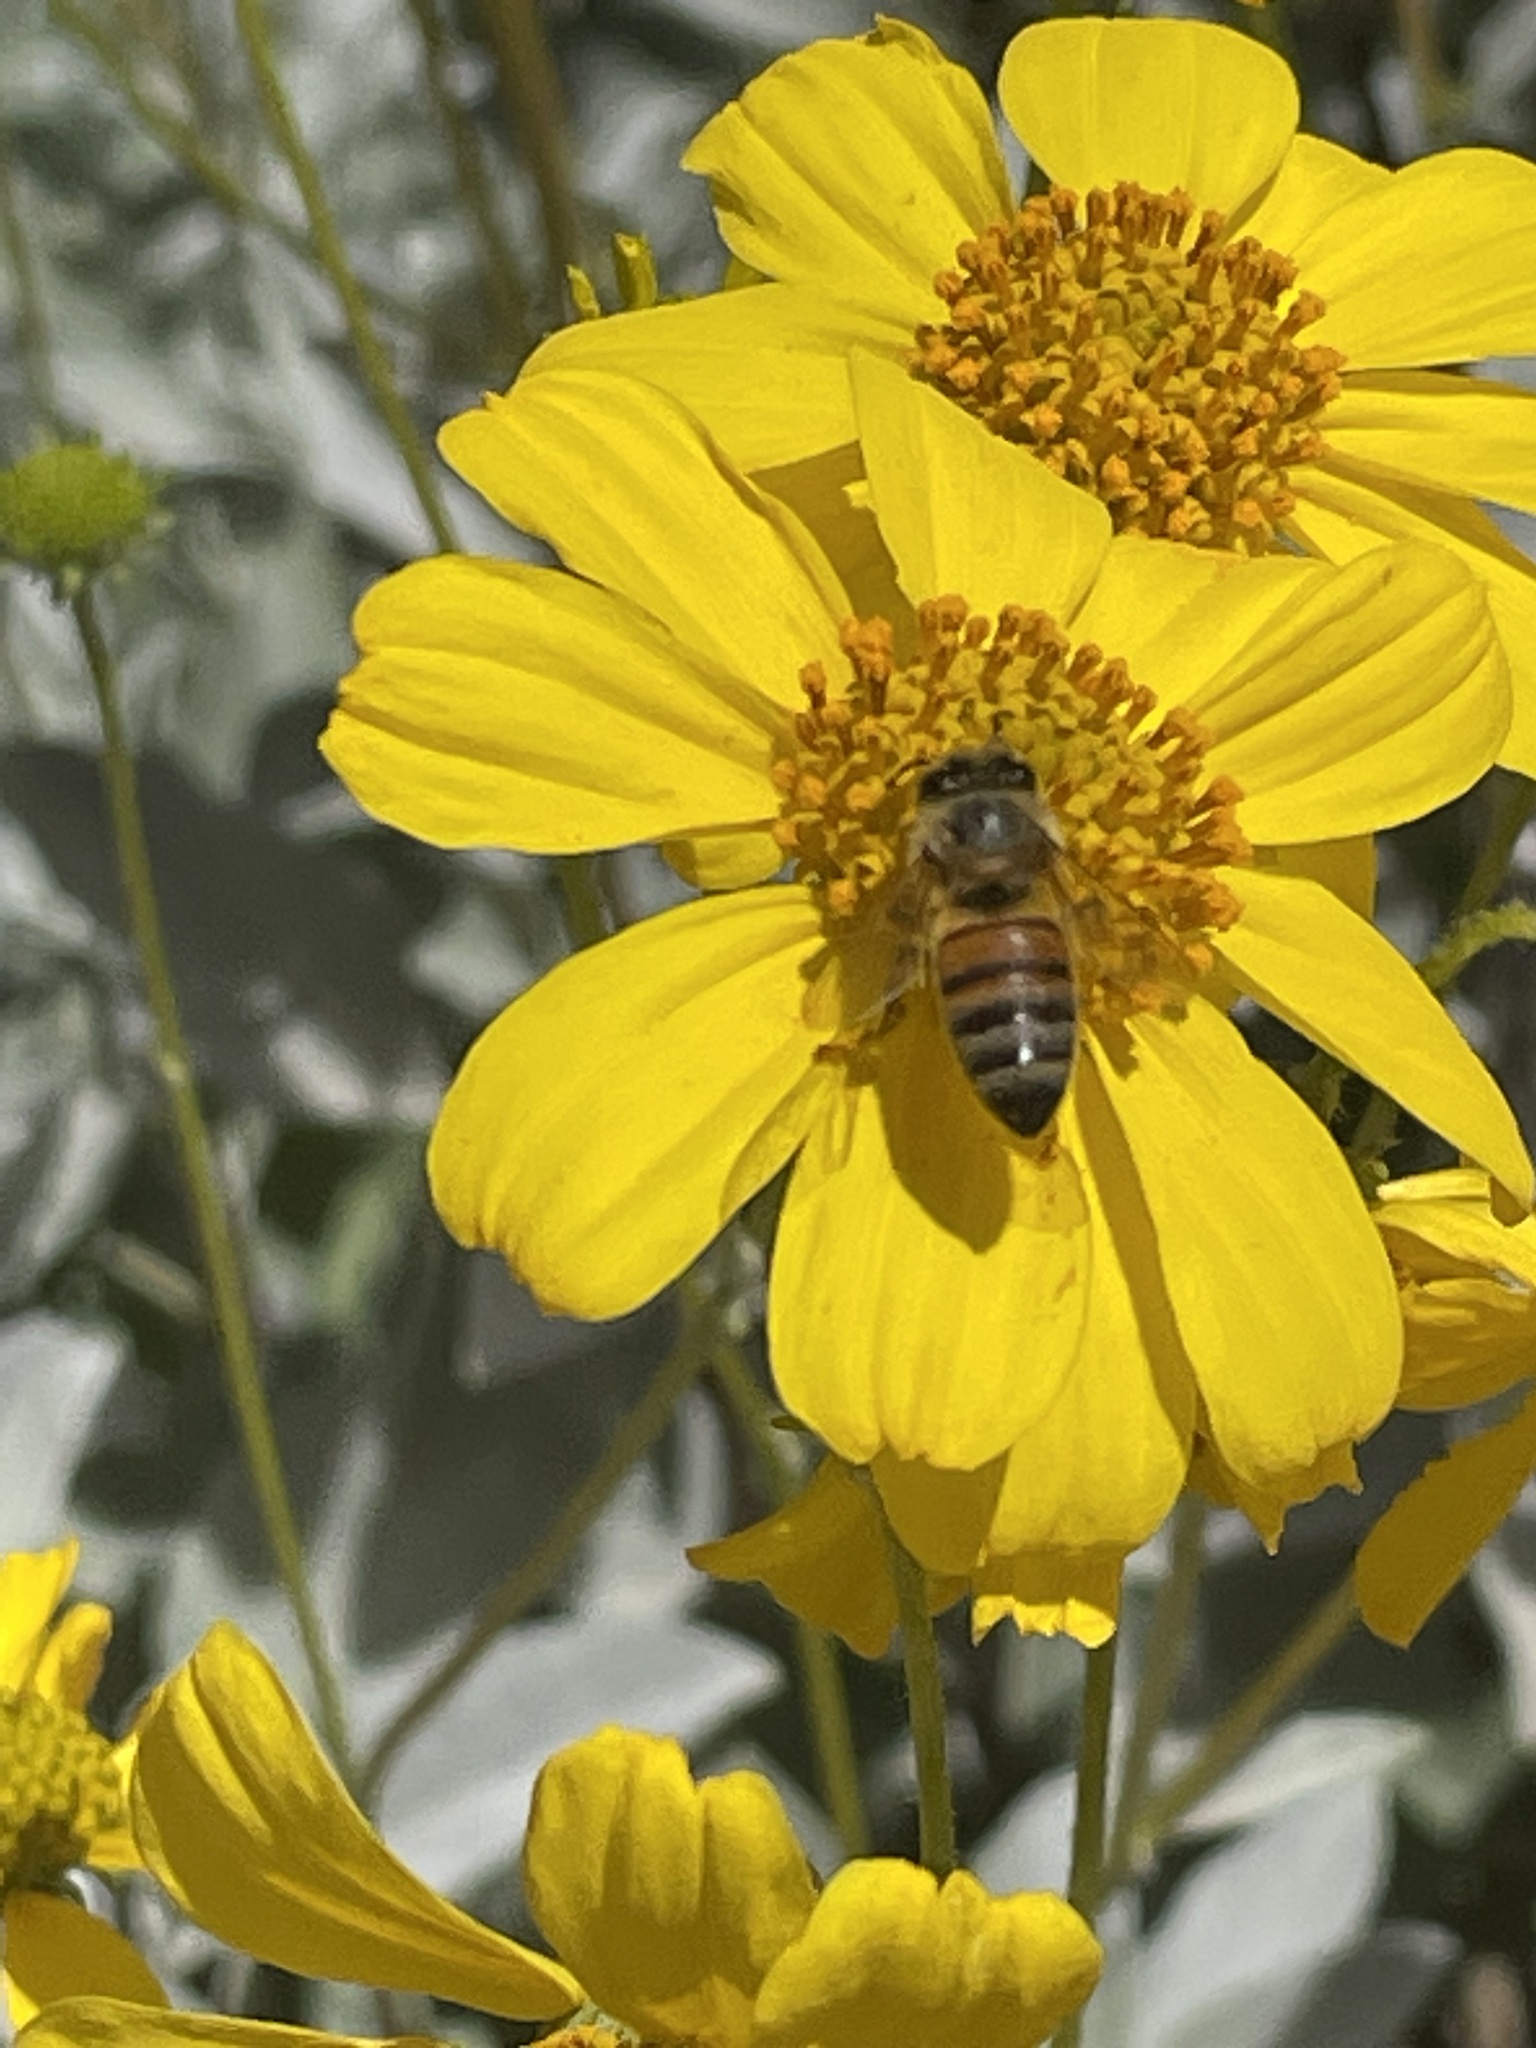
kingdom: Animalia
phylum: Arthropoda
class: Insecta
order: Hymenoptera
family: Apidae
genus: Apis
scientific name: Apis mellifera
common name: Honey bee
